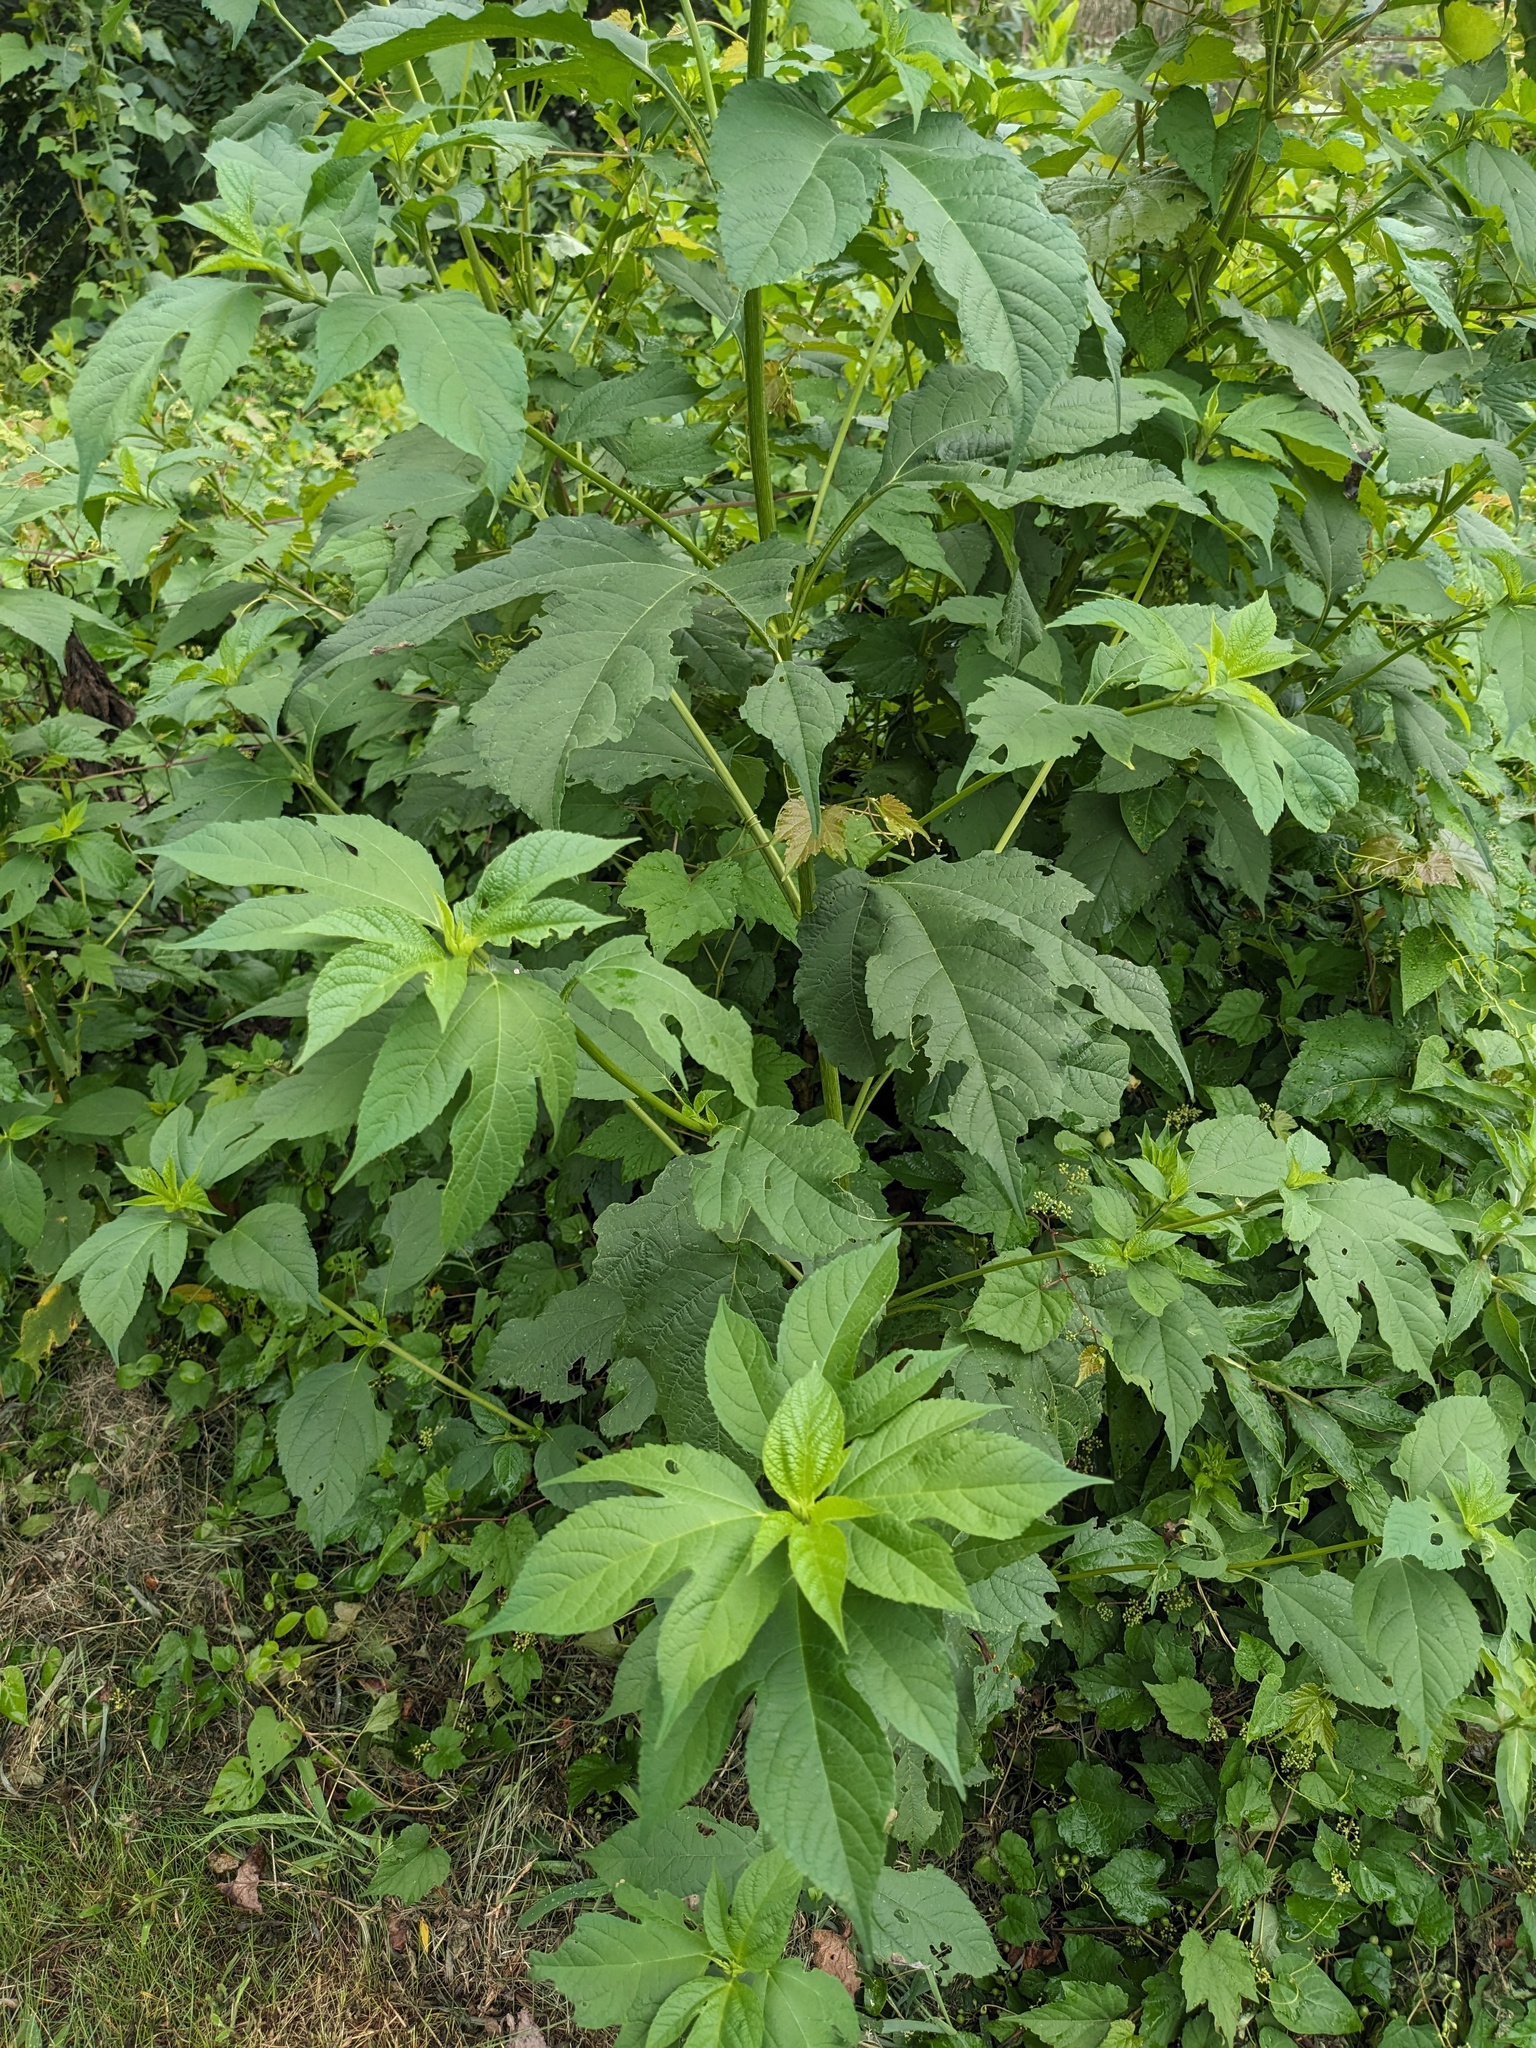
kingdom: Plantae
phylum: Tracheophyta
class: Magnoliopsida
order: Asterales
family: Asteraceae
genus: Ambrosia
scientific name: Ambrosia trifida
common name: Giant ragweed
